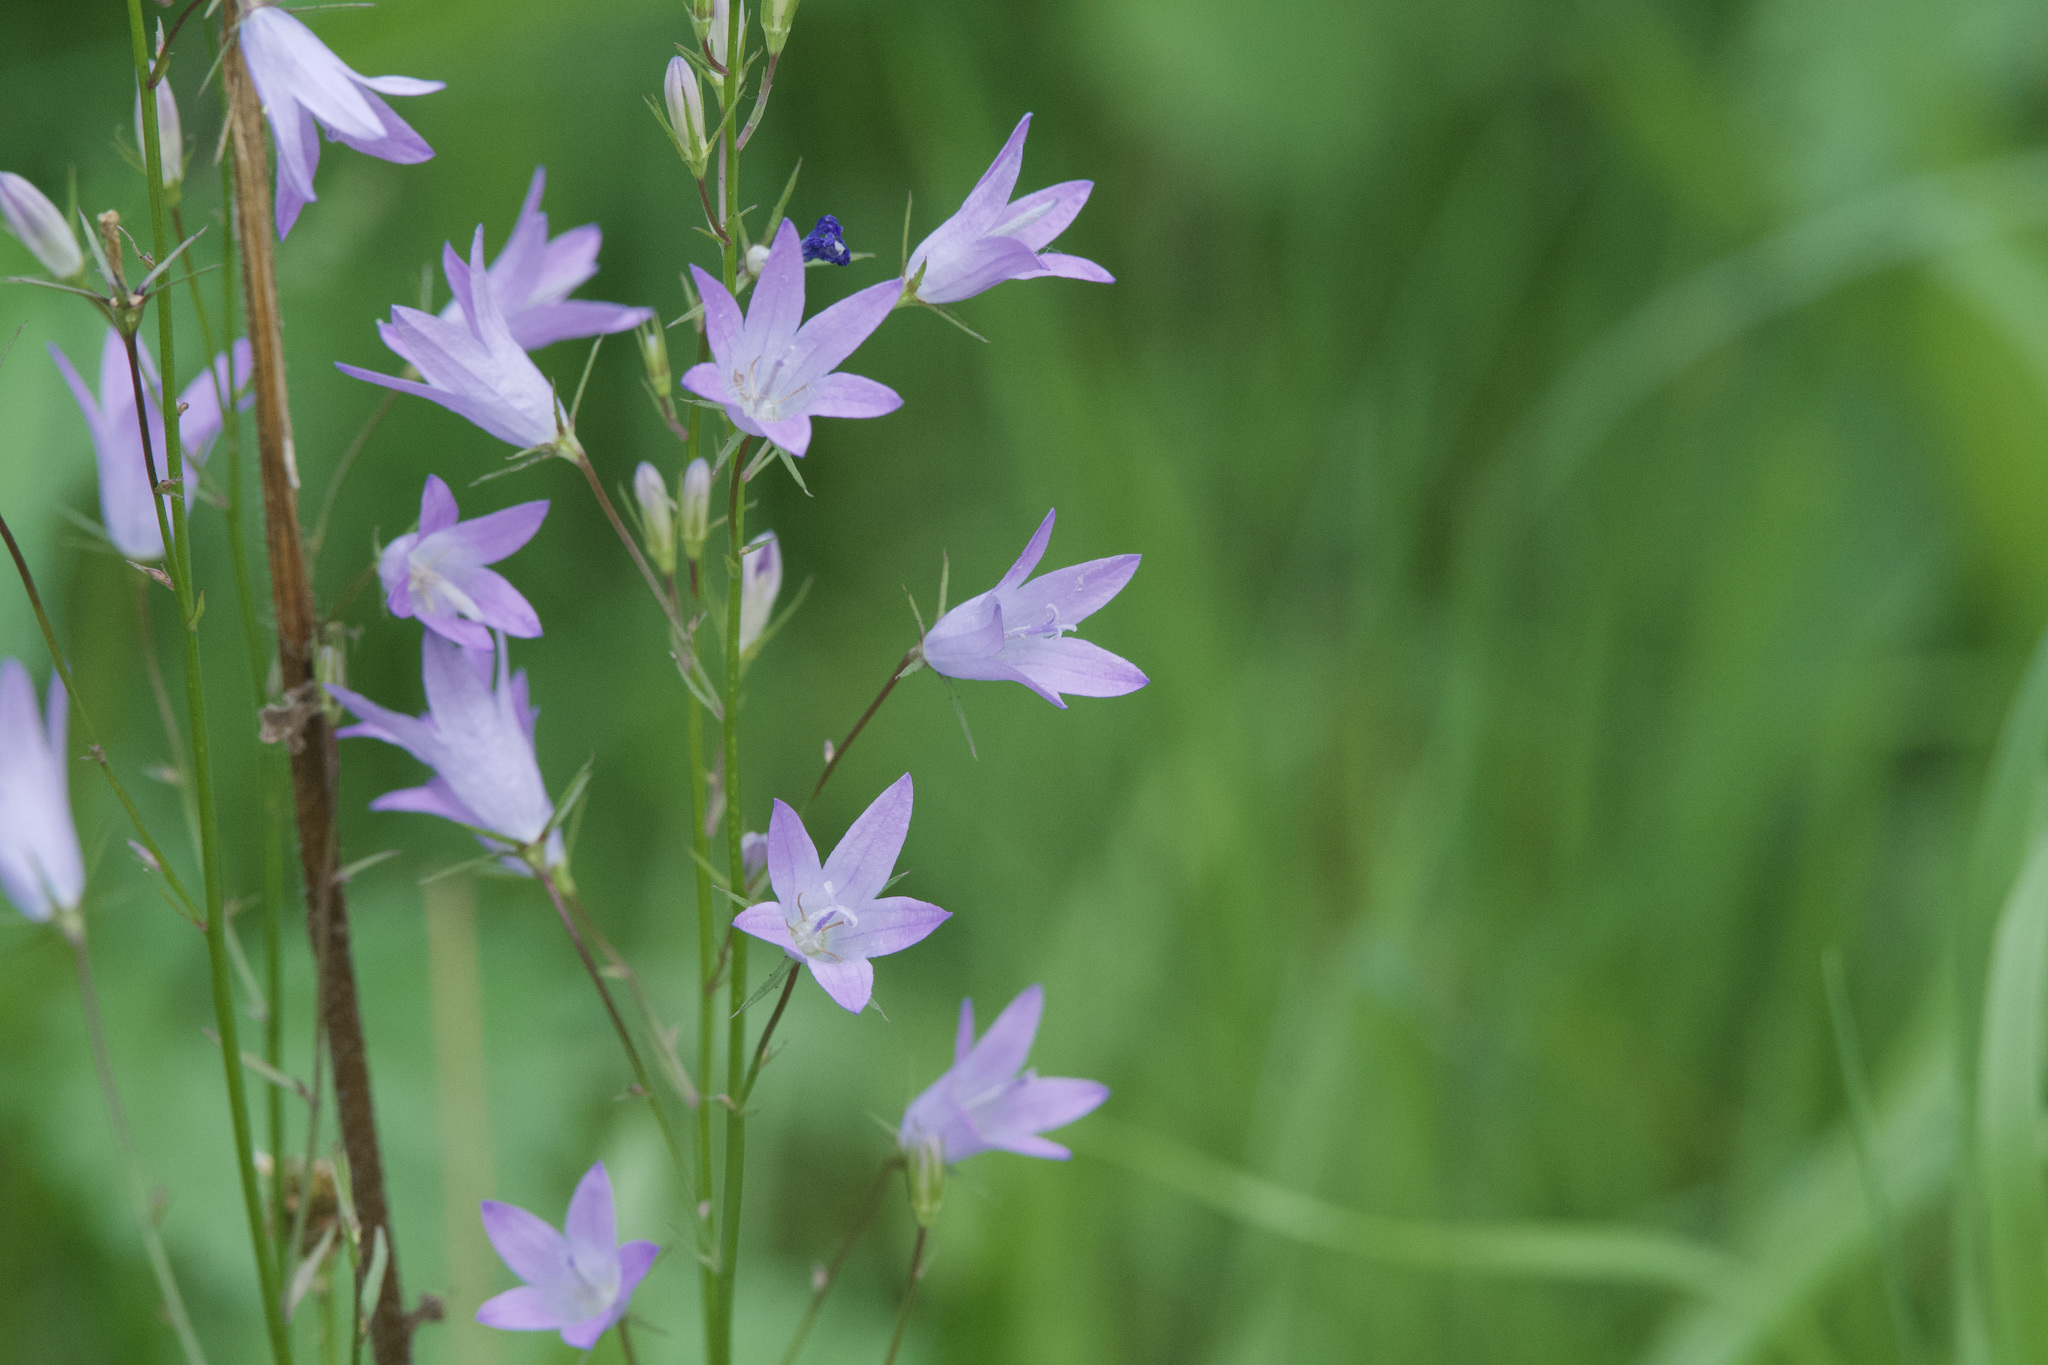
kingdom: Plantae
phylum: Tracheophyta
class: Magnoliopsida
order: Asterales
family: Campanulaceae
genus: Campanula
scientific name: Campanula rapunculus
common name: Rampion bellflower
